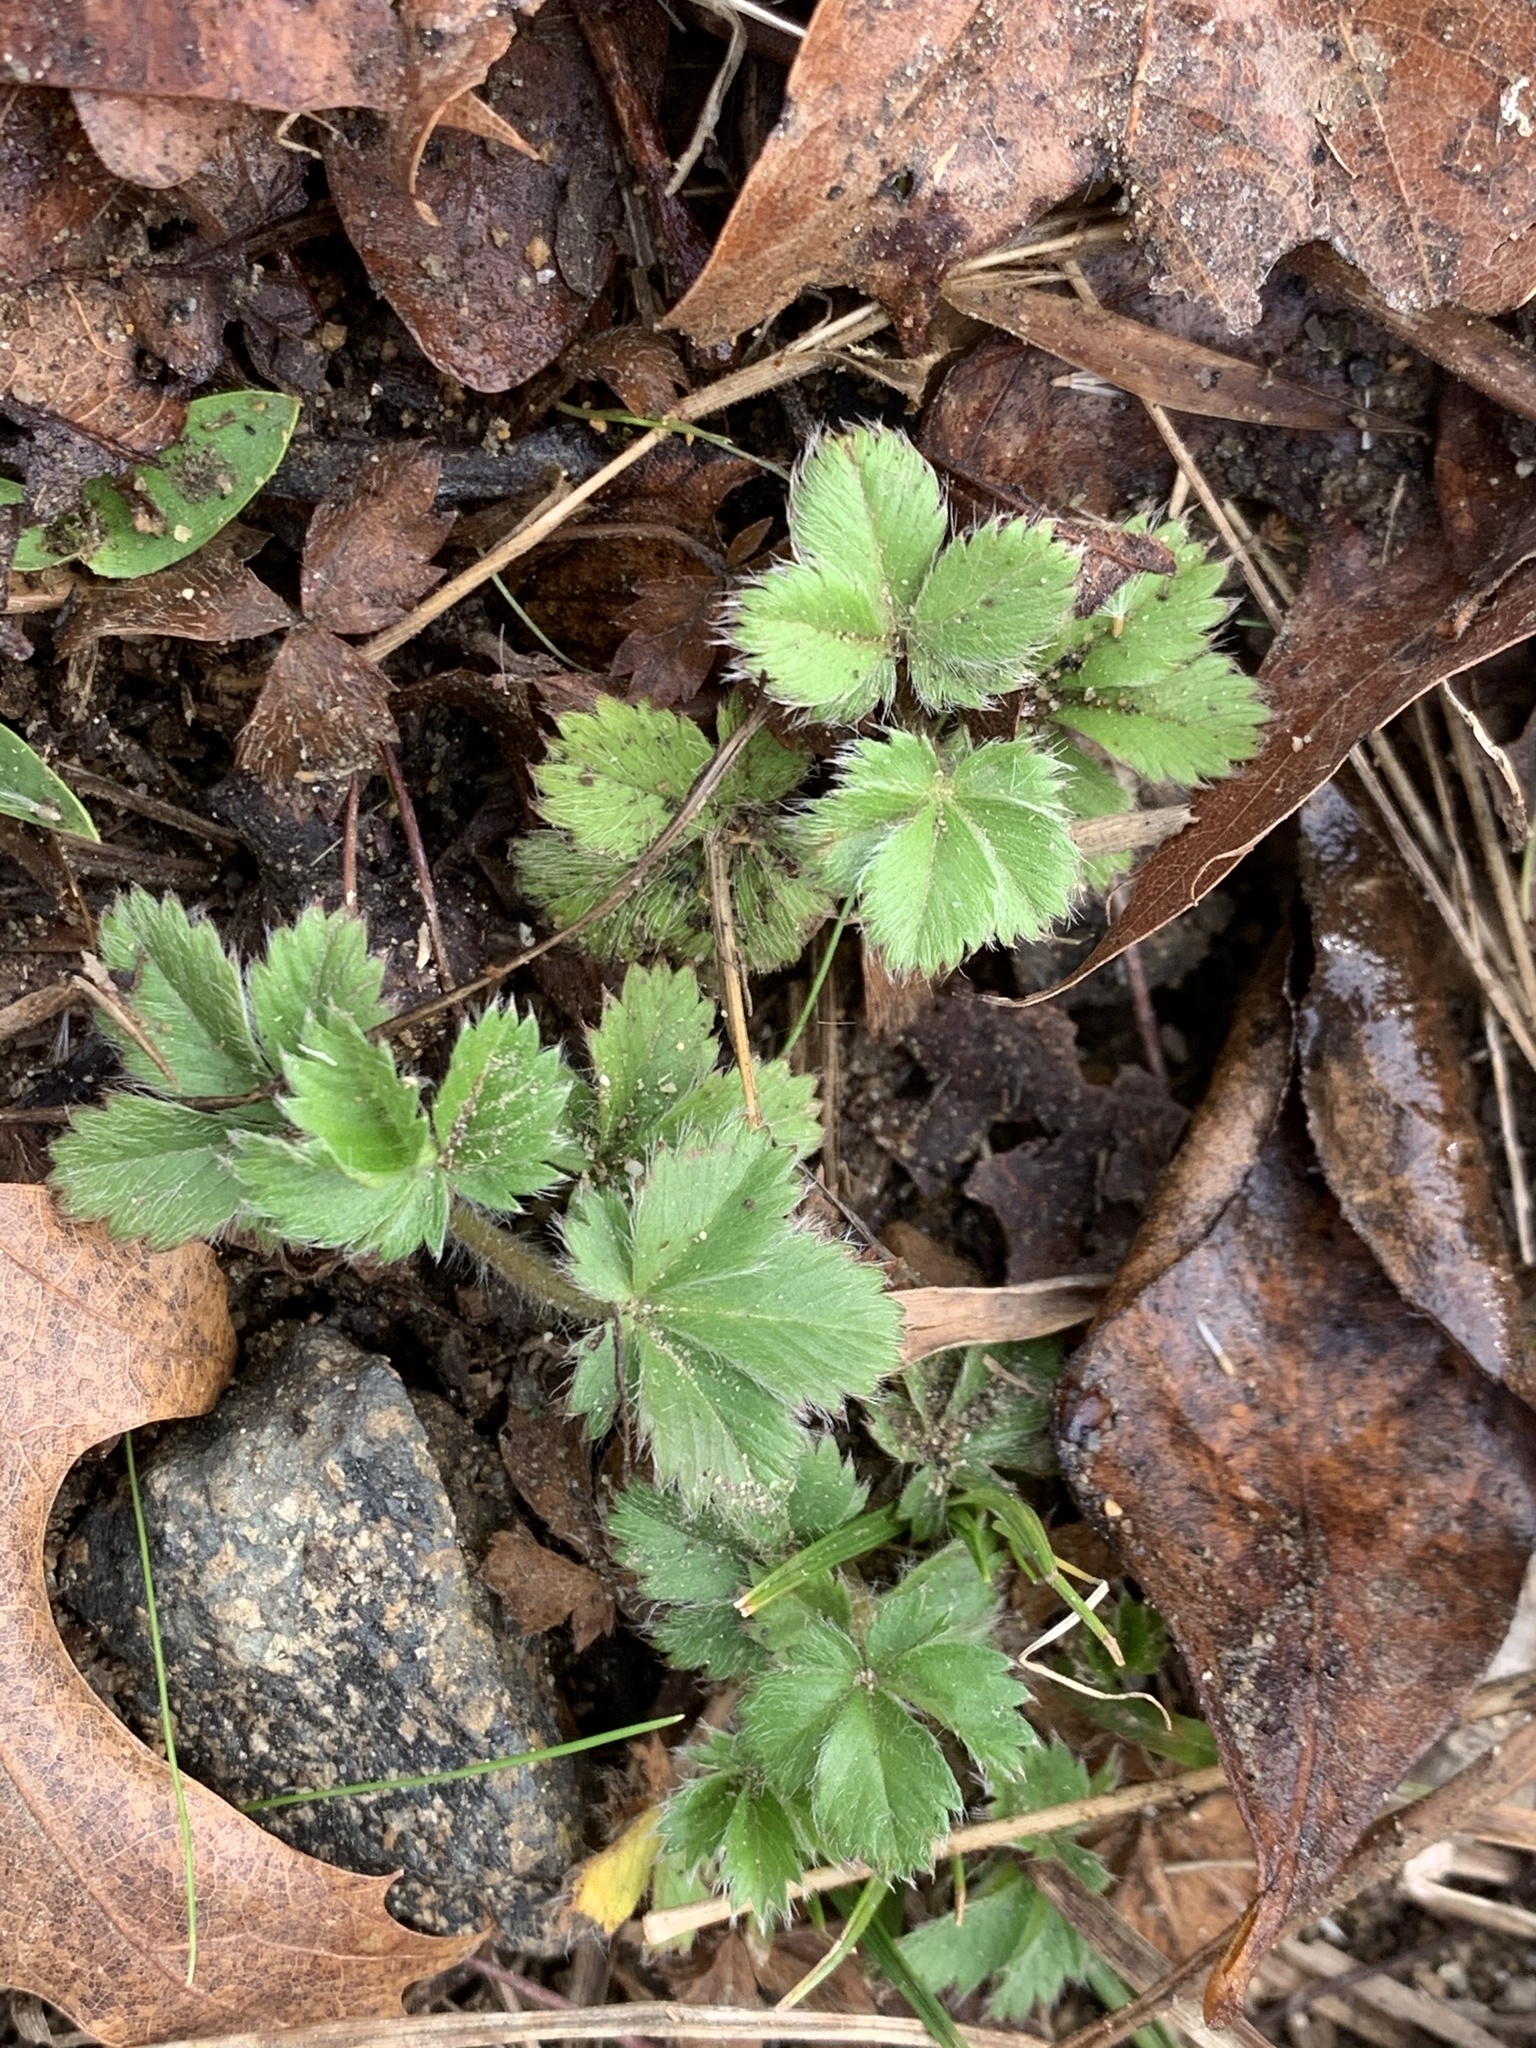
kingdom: Plantae
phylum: Tracheophyta
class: Magnoliopsida
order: Rosales
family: Rosaceae
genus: Potentilla
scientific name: Potentilla canadensis
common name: Canada cinquefoil
